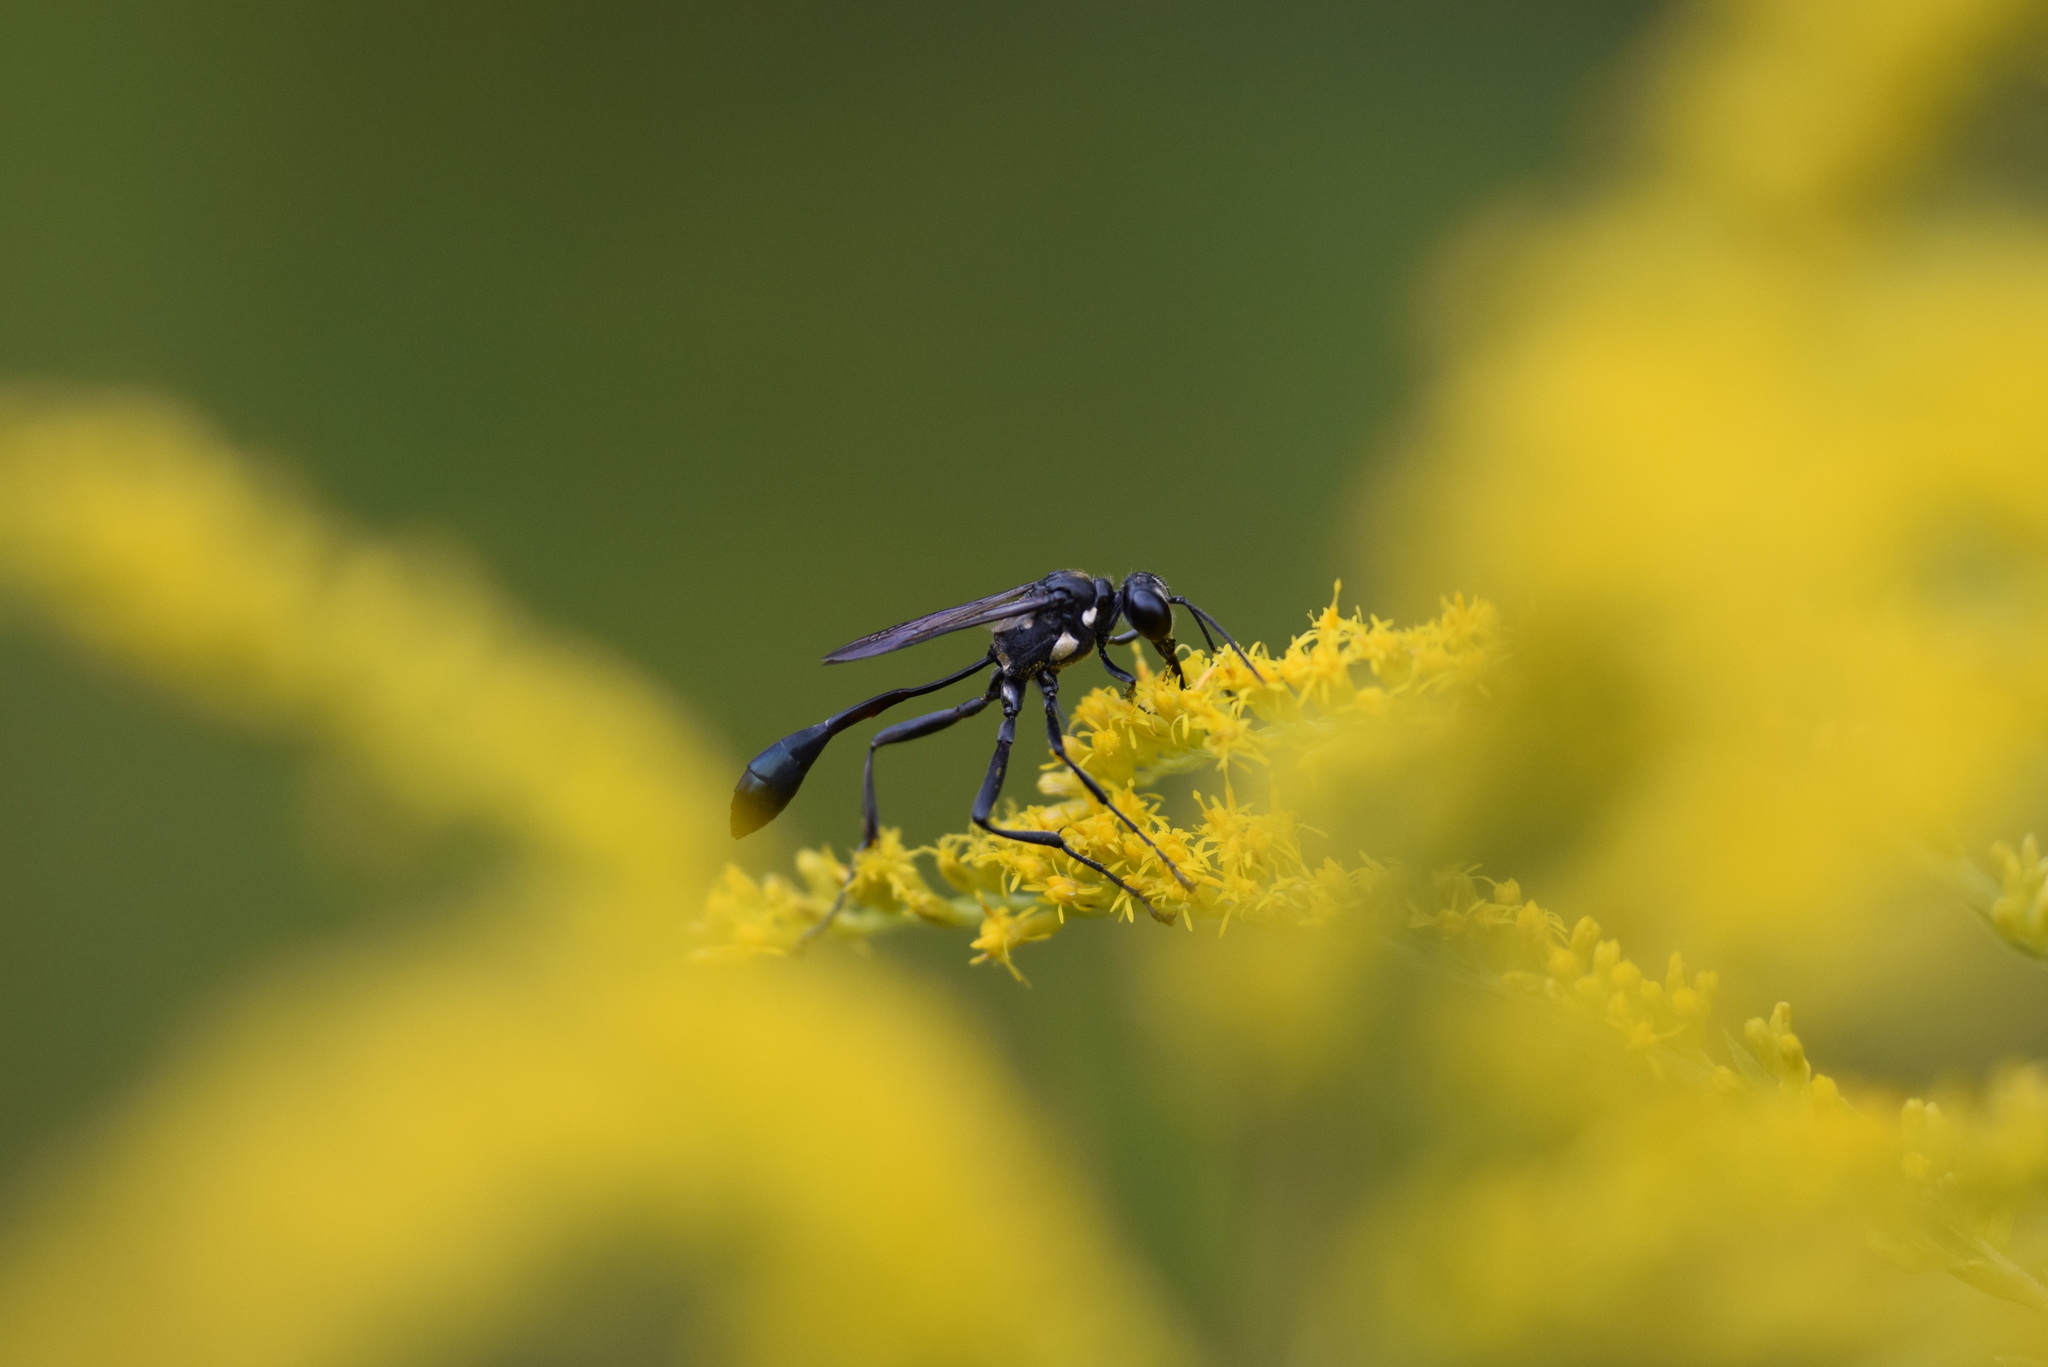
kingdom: Animalia
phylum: Arthropoda
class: Insecta
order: Hymenoptera
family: Sphecidae
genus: Eremnophila
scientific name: Eremnophila aureonotata
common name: Gold-marked thread-waisted wasp
